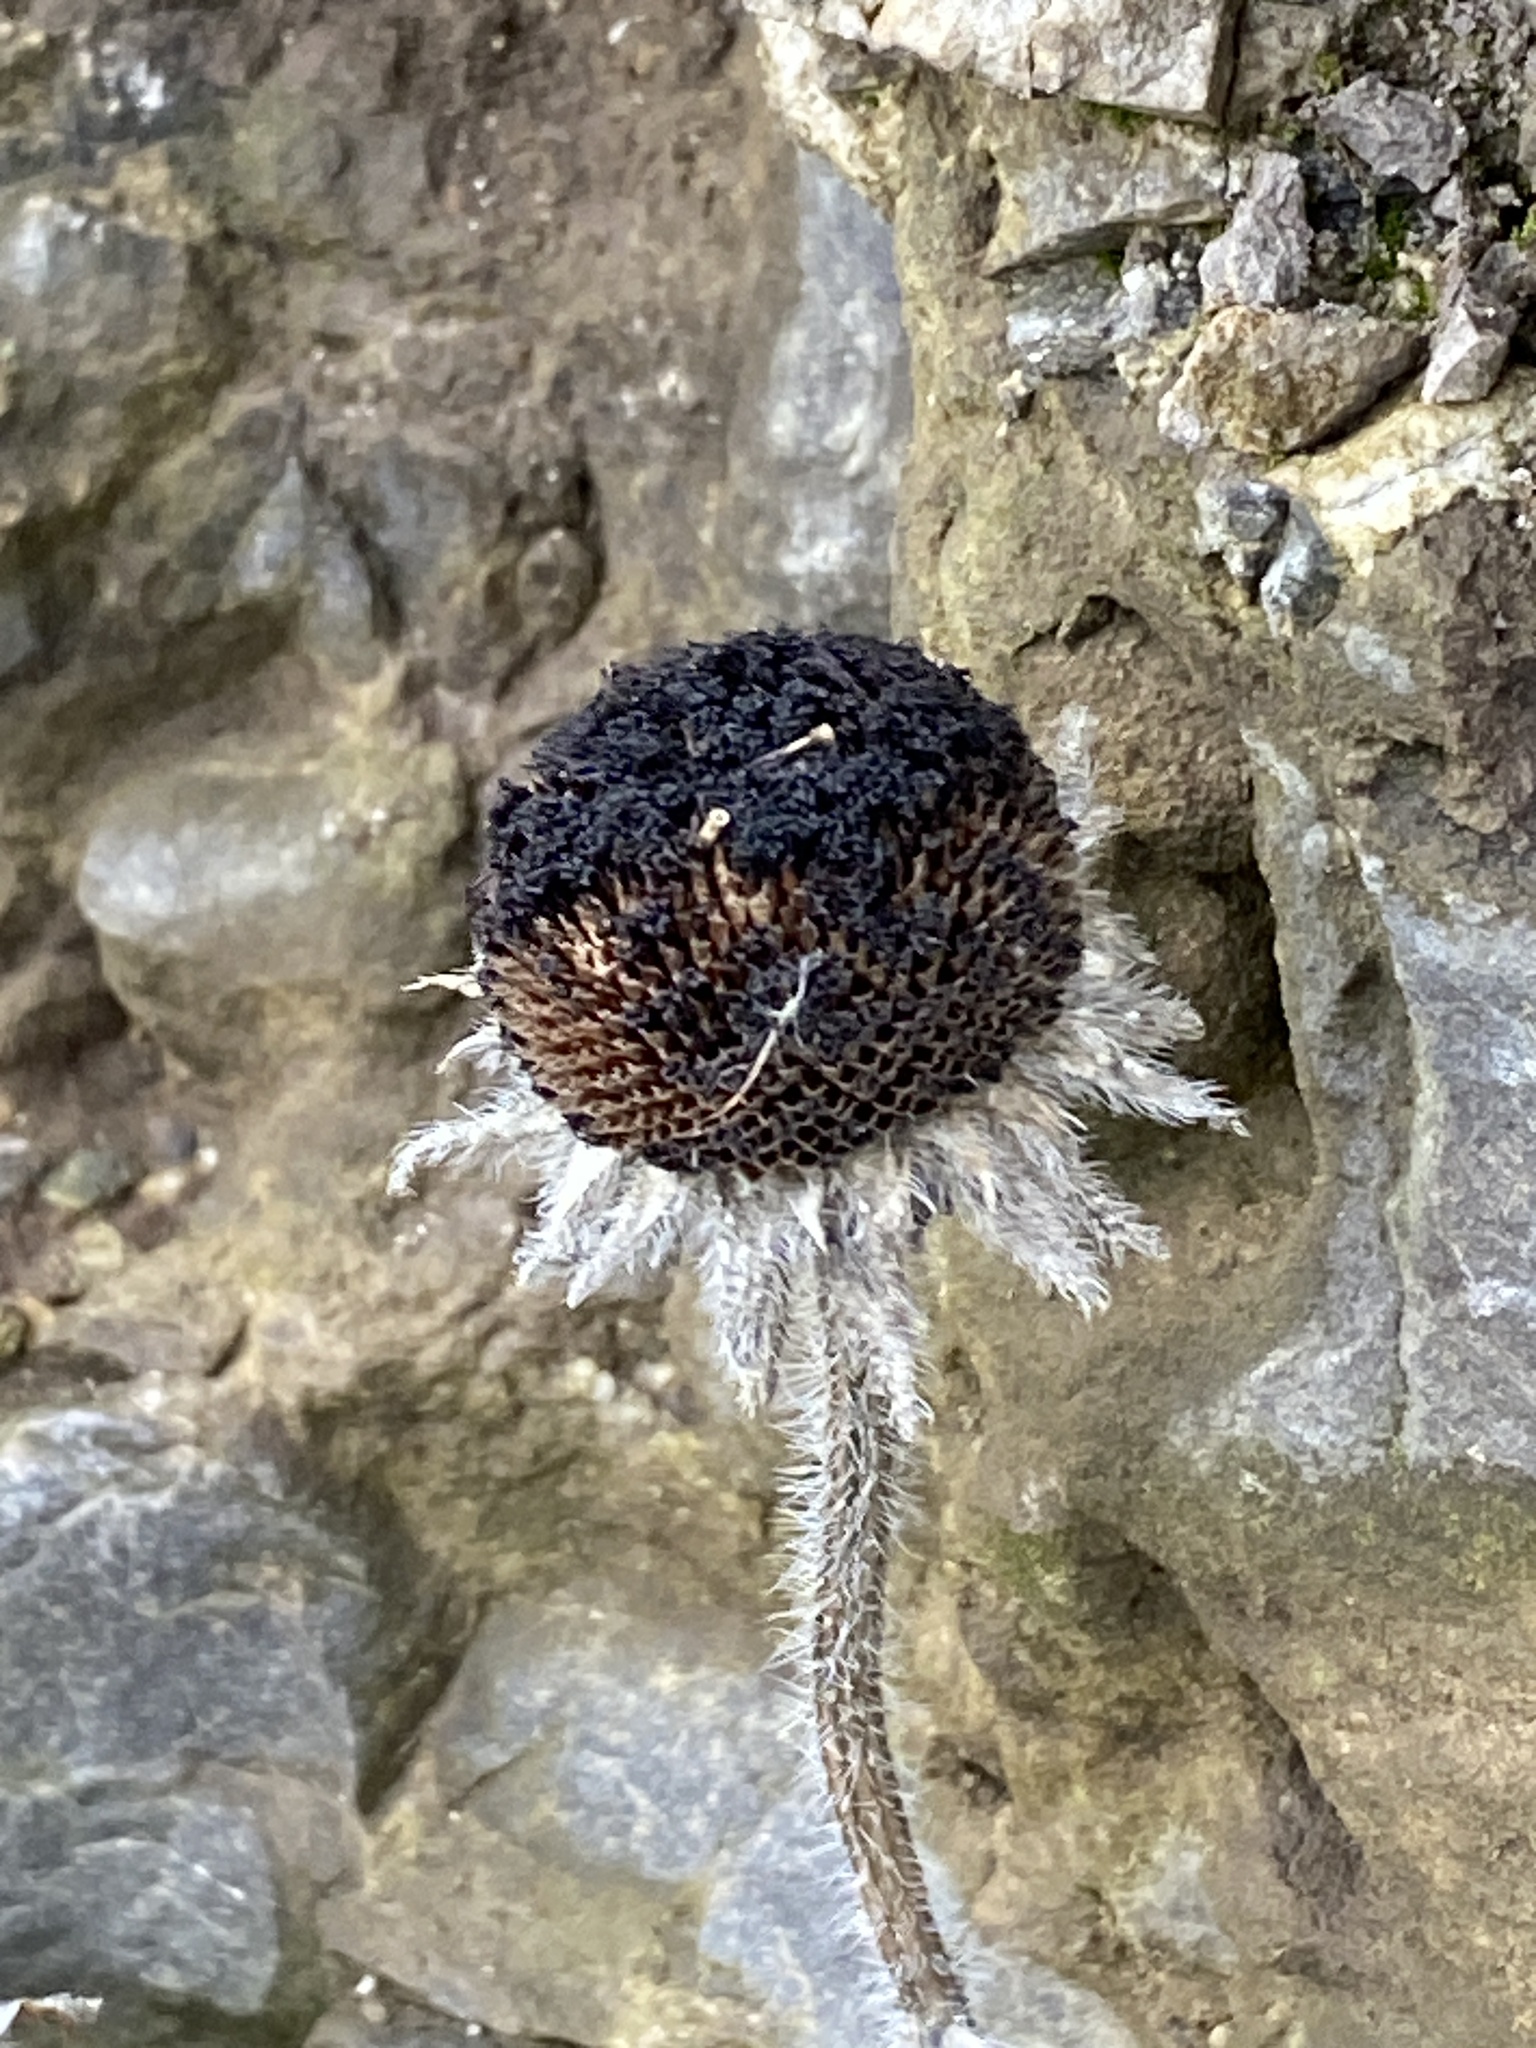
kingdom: Plantae
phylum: Tracheophyta
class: Magnoliopsida
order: Asterales
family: Asteraceae
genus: Rudbeckia
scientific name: Rudbeckia hirta
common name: Black-eyed-susan
